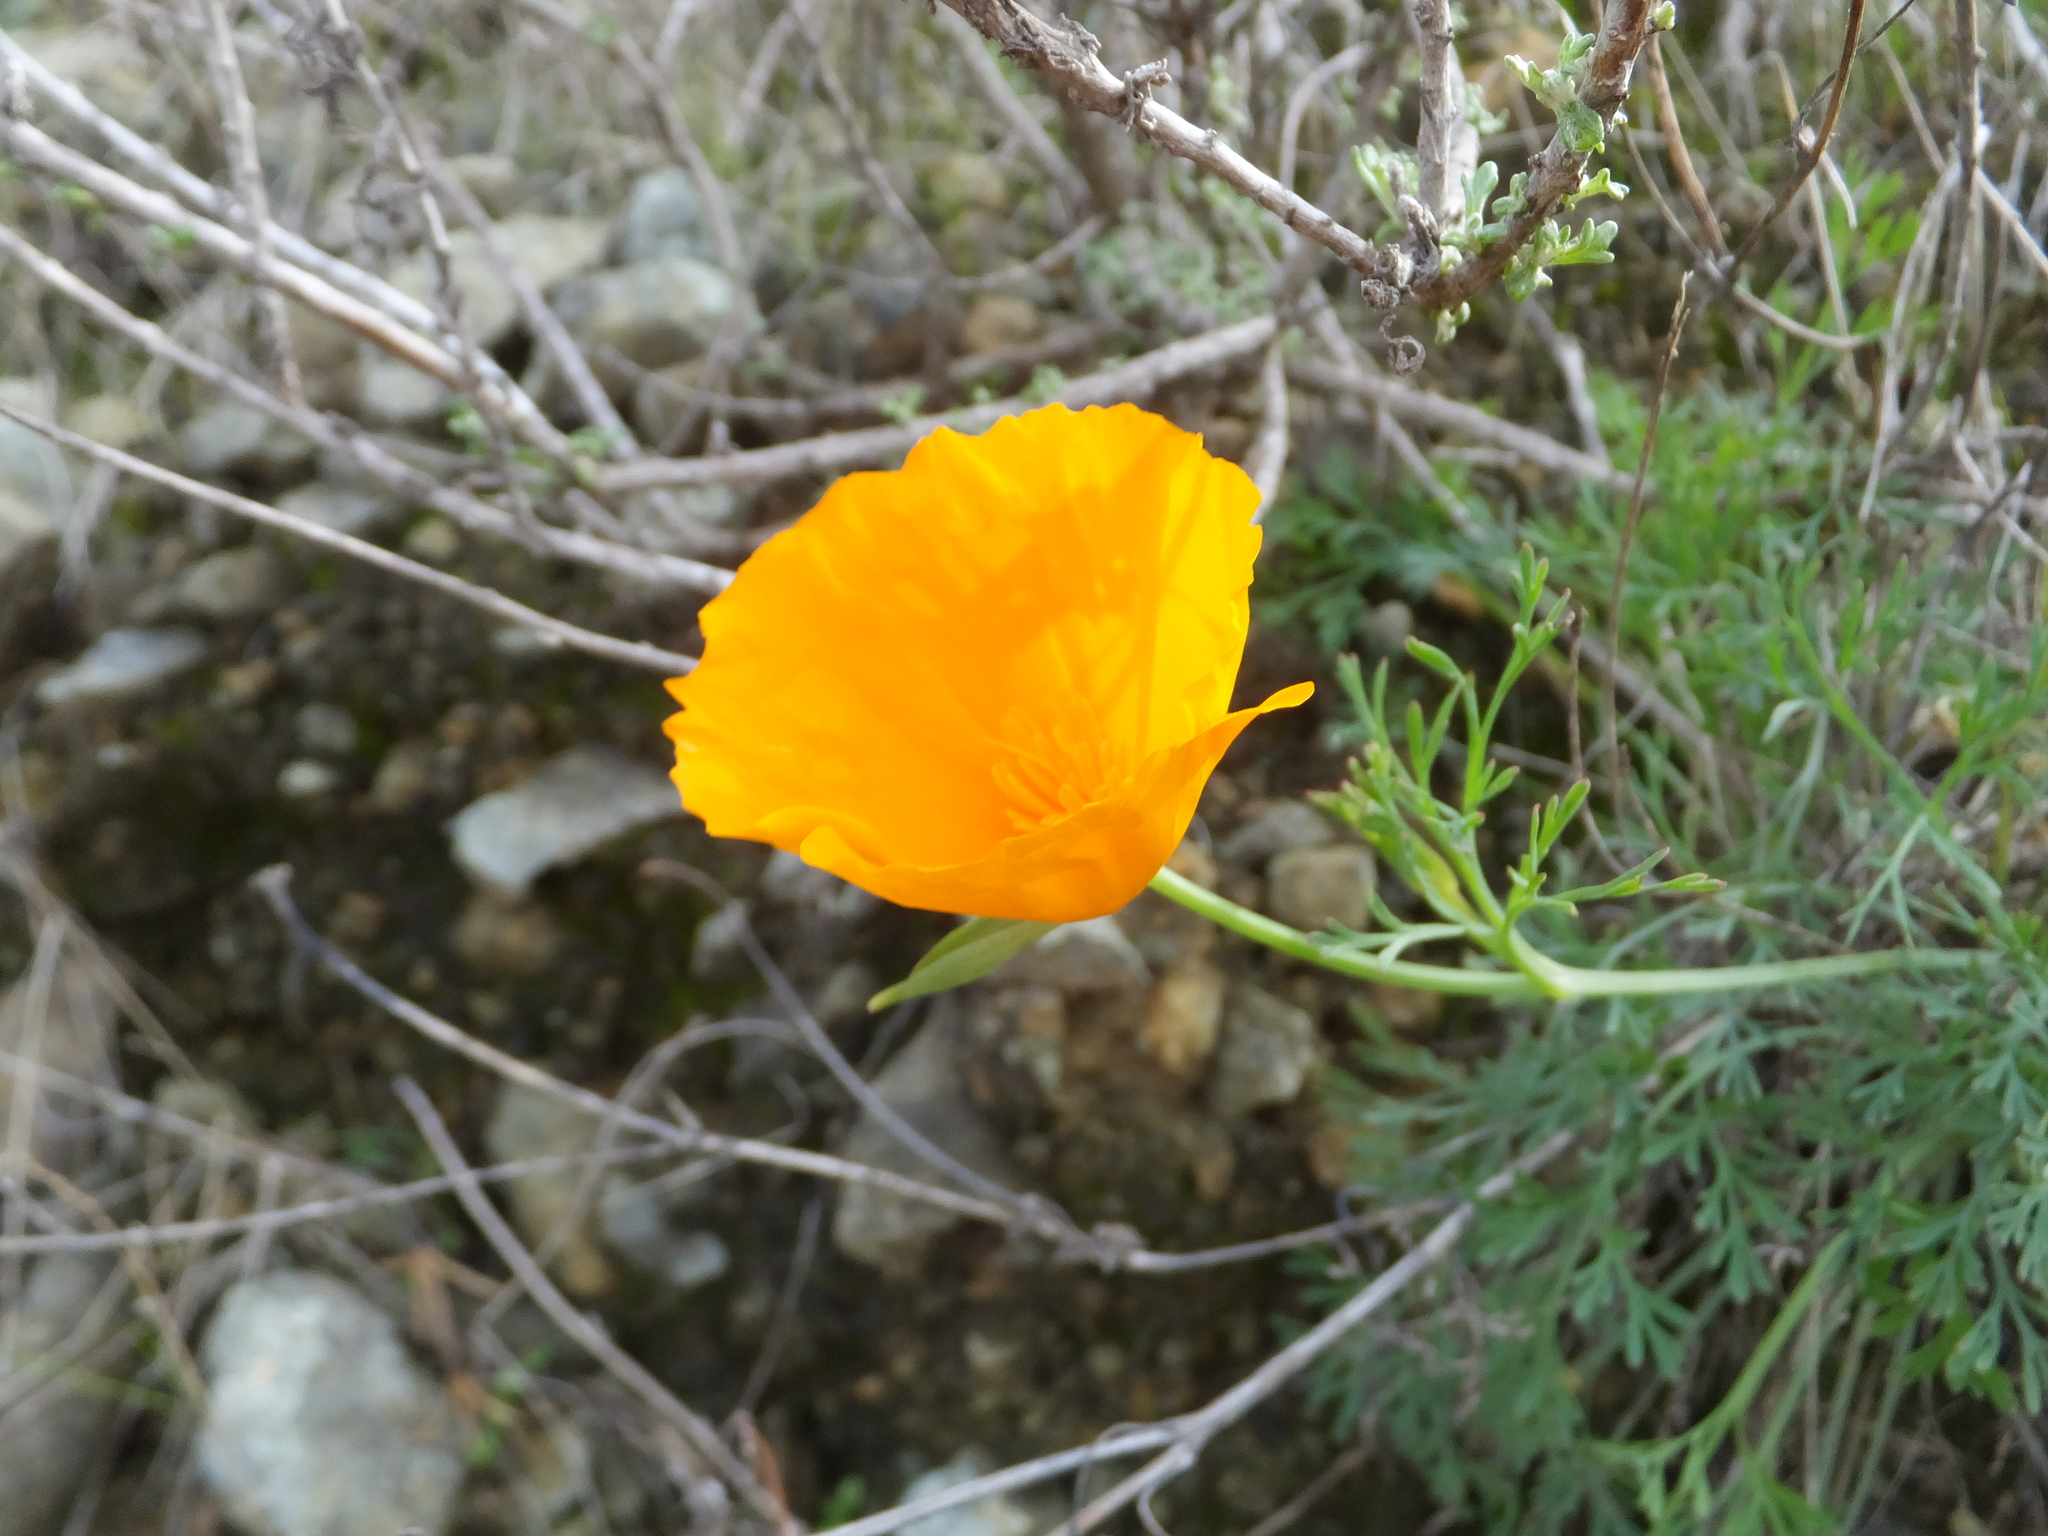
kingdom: Plantae
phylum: Tracheophyta
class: Magnoliopsida
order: Ranunculales
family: Papaveraceae
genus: Eschscholzia
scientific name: Eschscholzia californica
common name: California poppy
